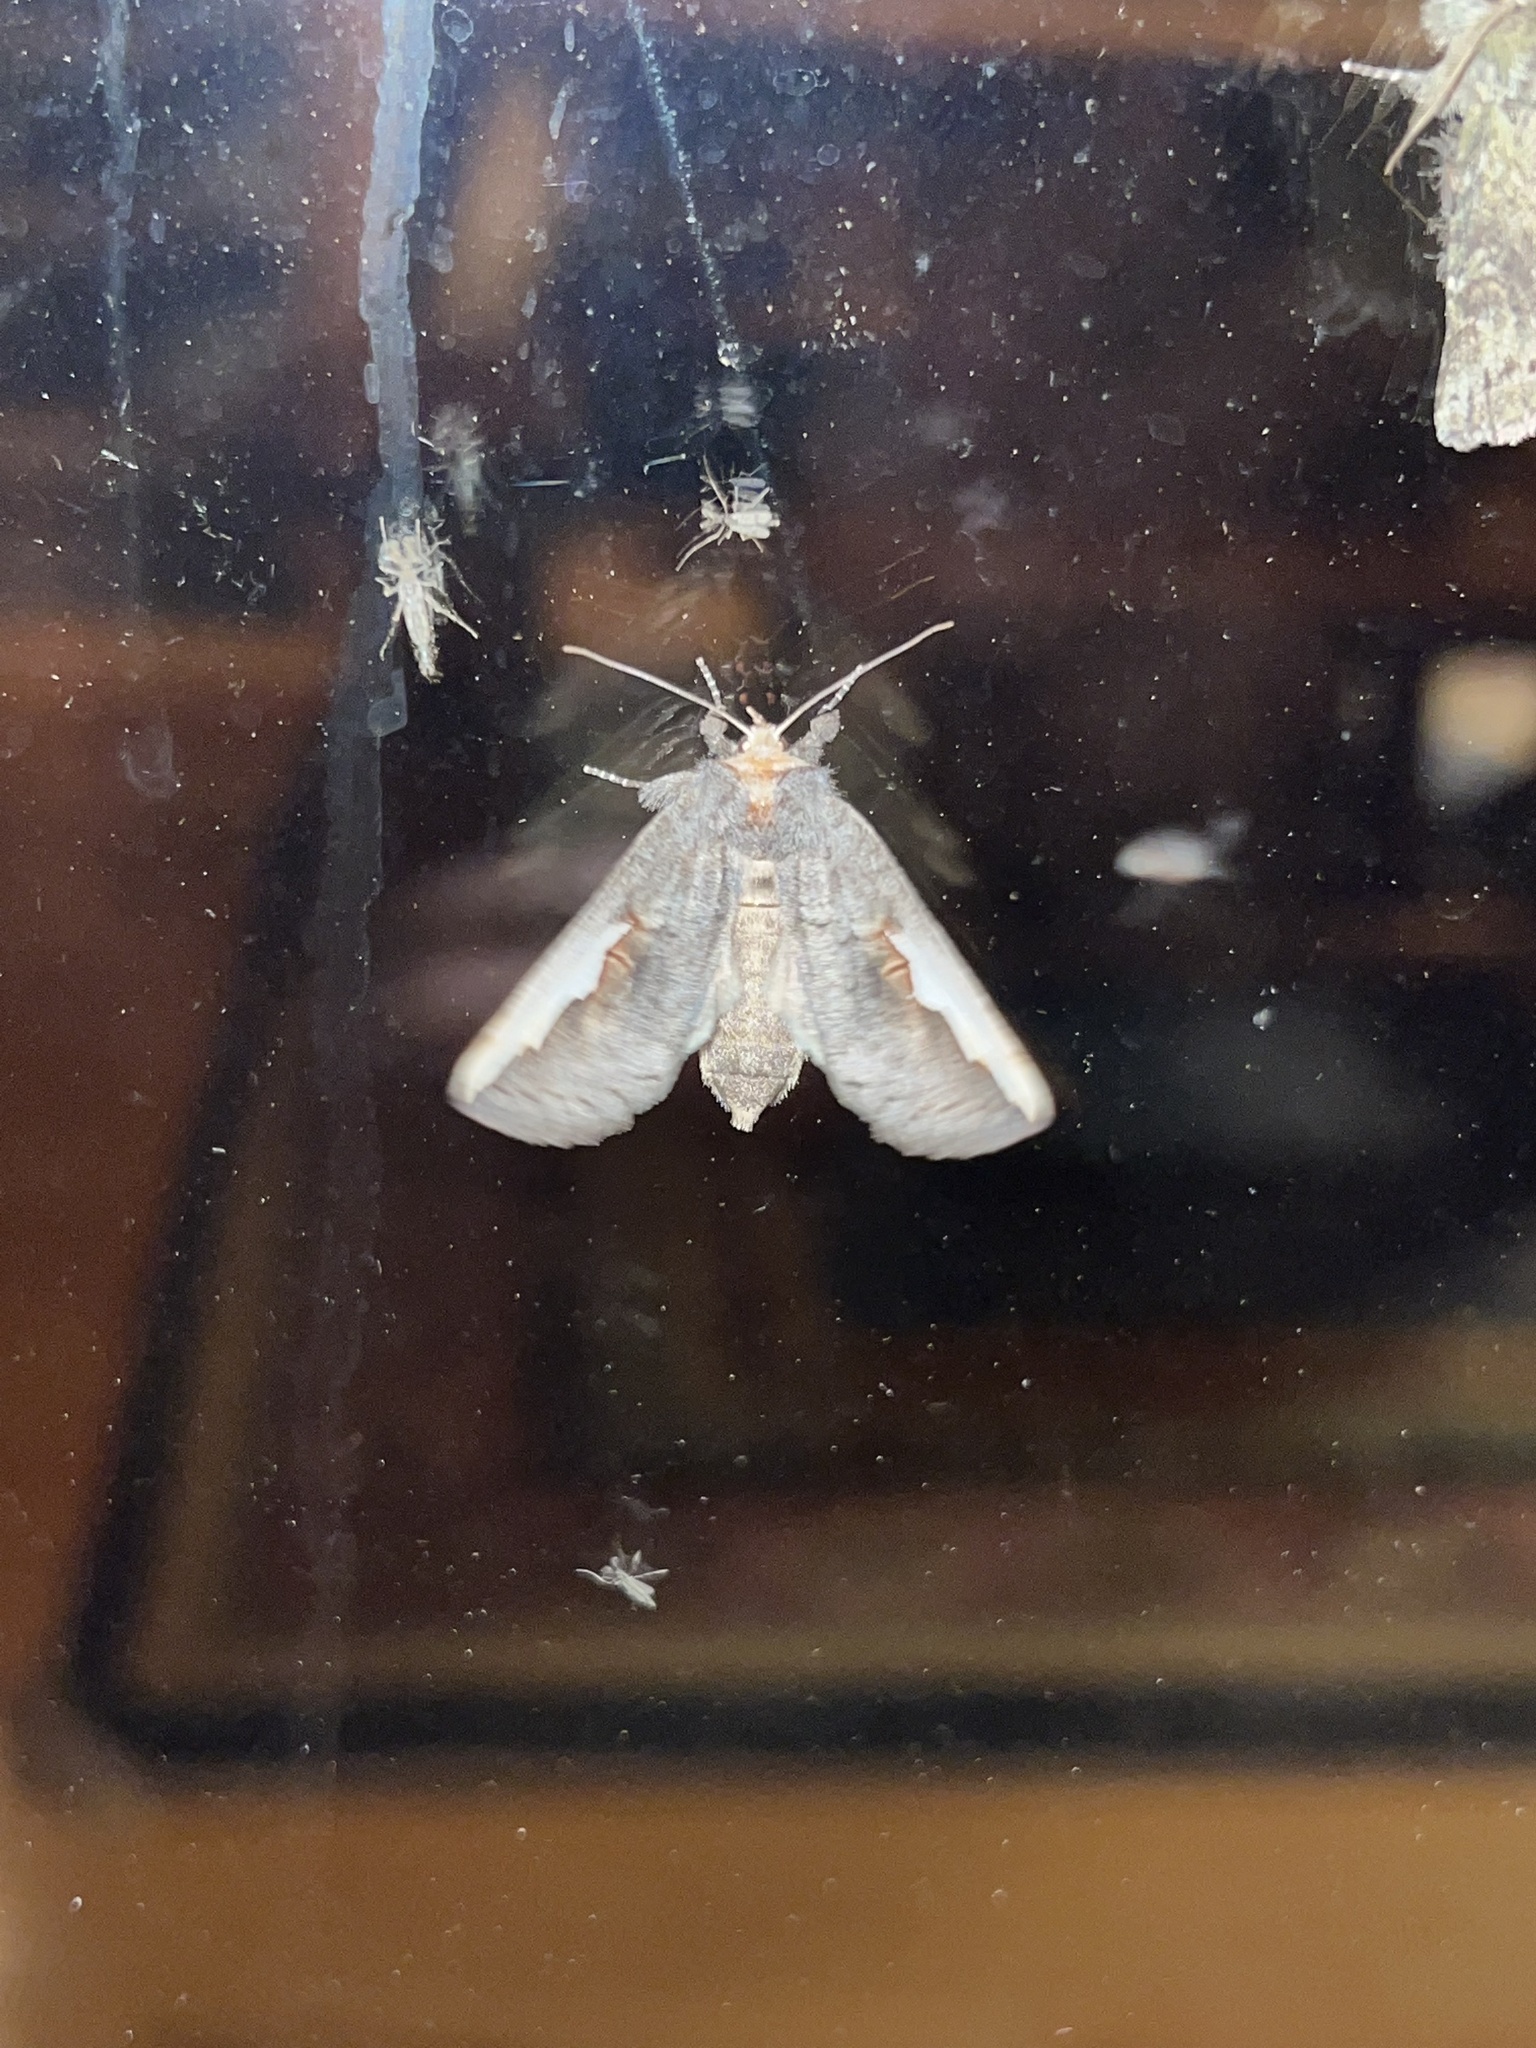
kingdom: Animalia
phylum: Arthropoda
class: Insecta
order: Lepidoptera
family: Notodontidae
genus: Symmerista
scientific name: Symmerista albifrons
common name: White-headed prominent
